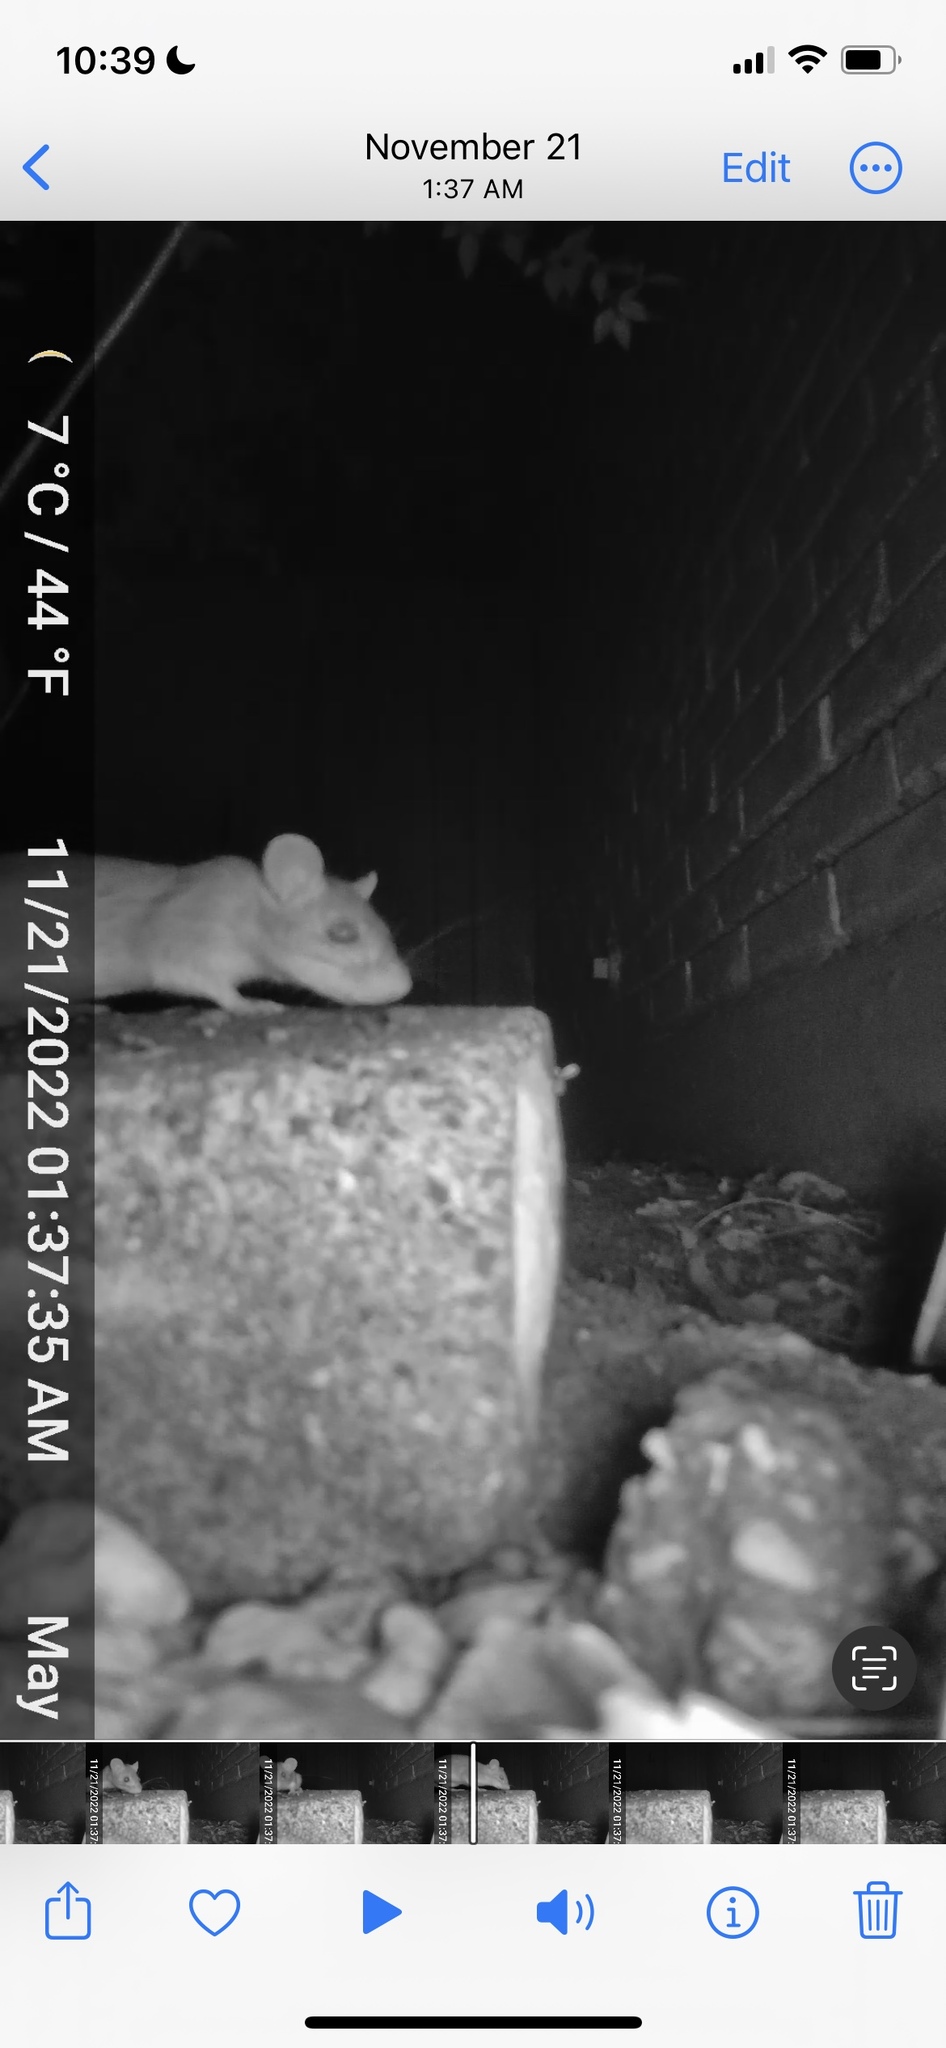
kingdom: Animalia
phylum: Chordata
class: Mammalia
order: Rodentia
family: Muridae
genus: Rattus
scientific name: Rattus rattus
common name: Black rat
